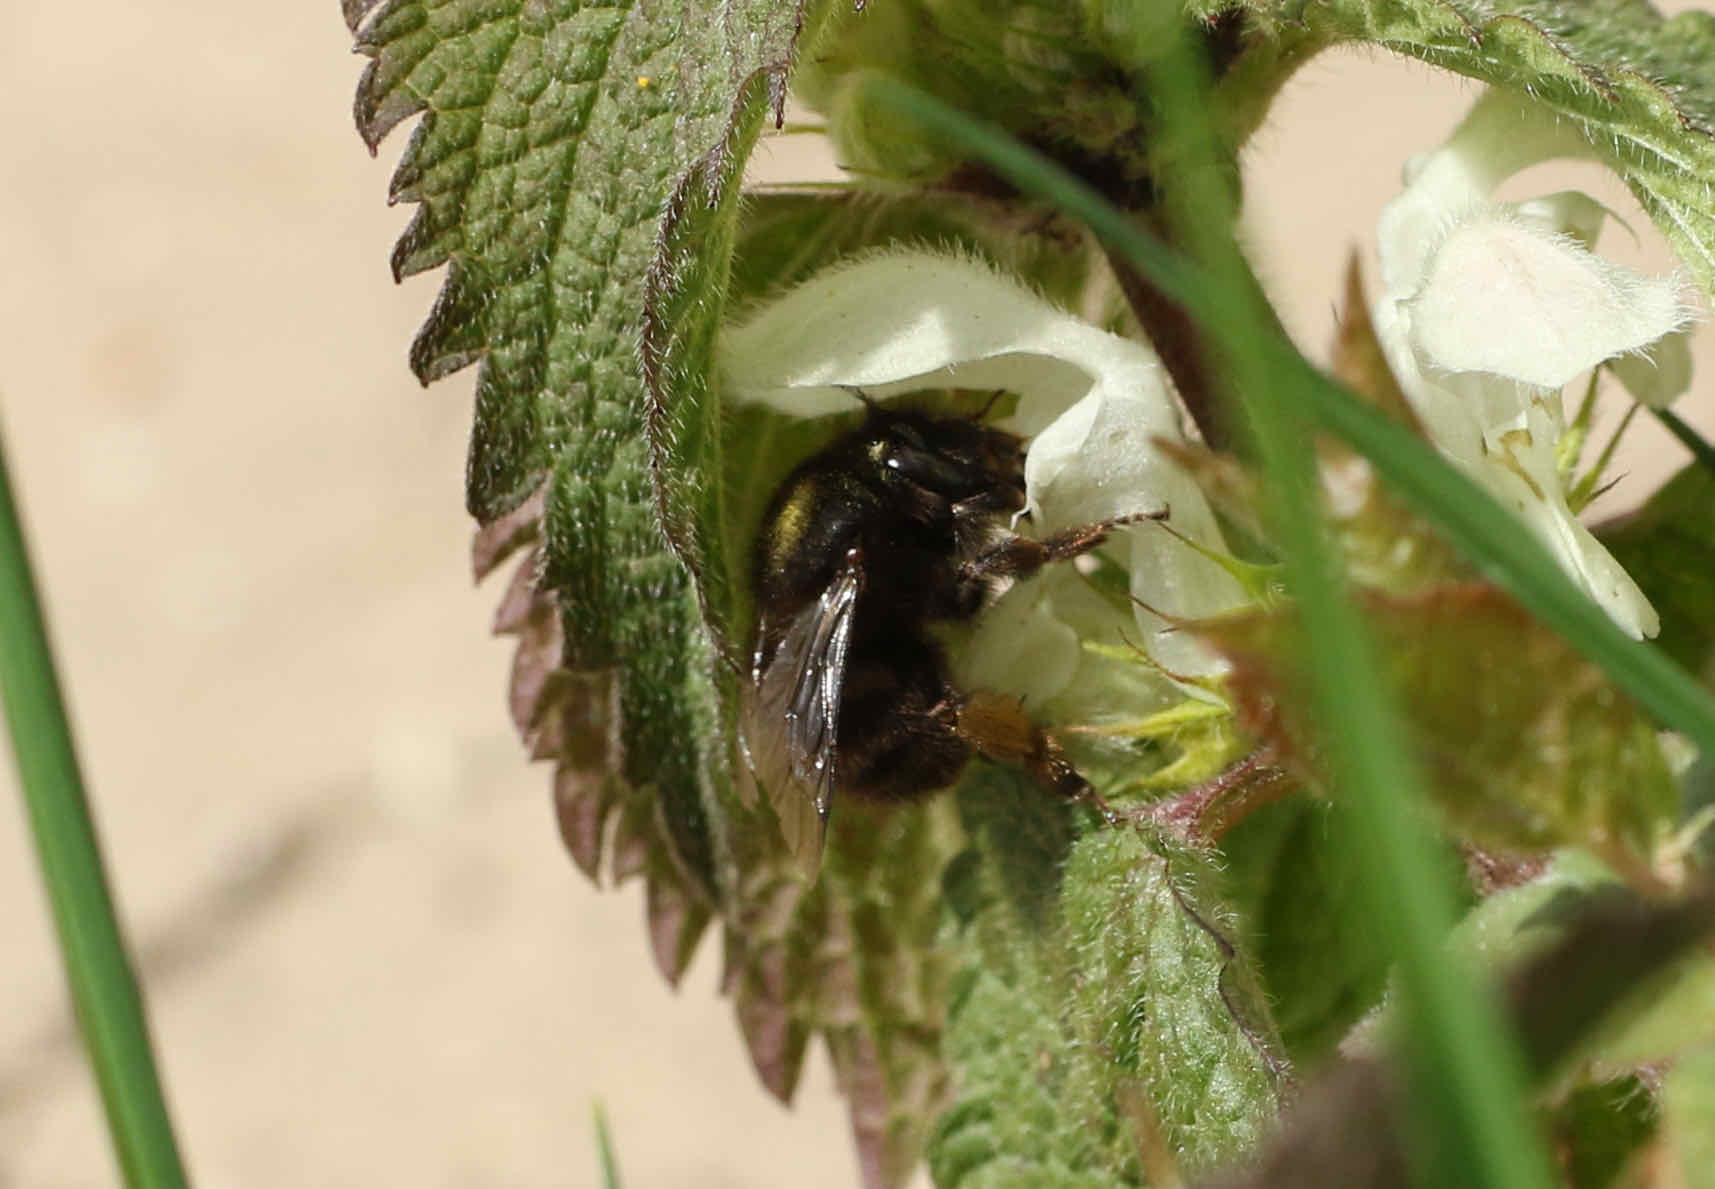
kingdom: Animalia
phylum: Arthropoda
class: Insecta
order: Hymenoptera
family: Apidae
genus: Anthophora
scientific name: Anthophora plumipes
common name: Hairy-footed flower bee
